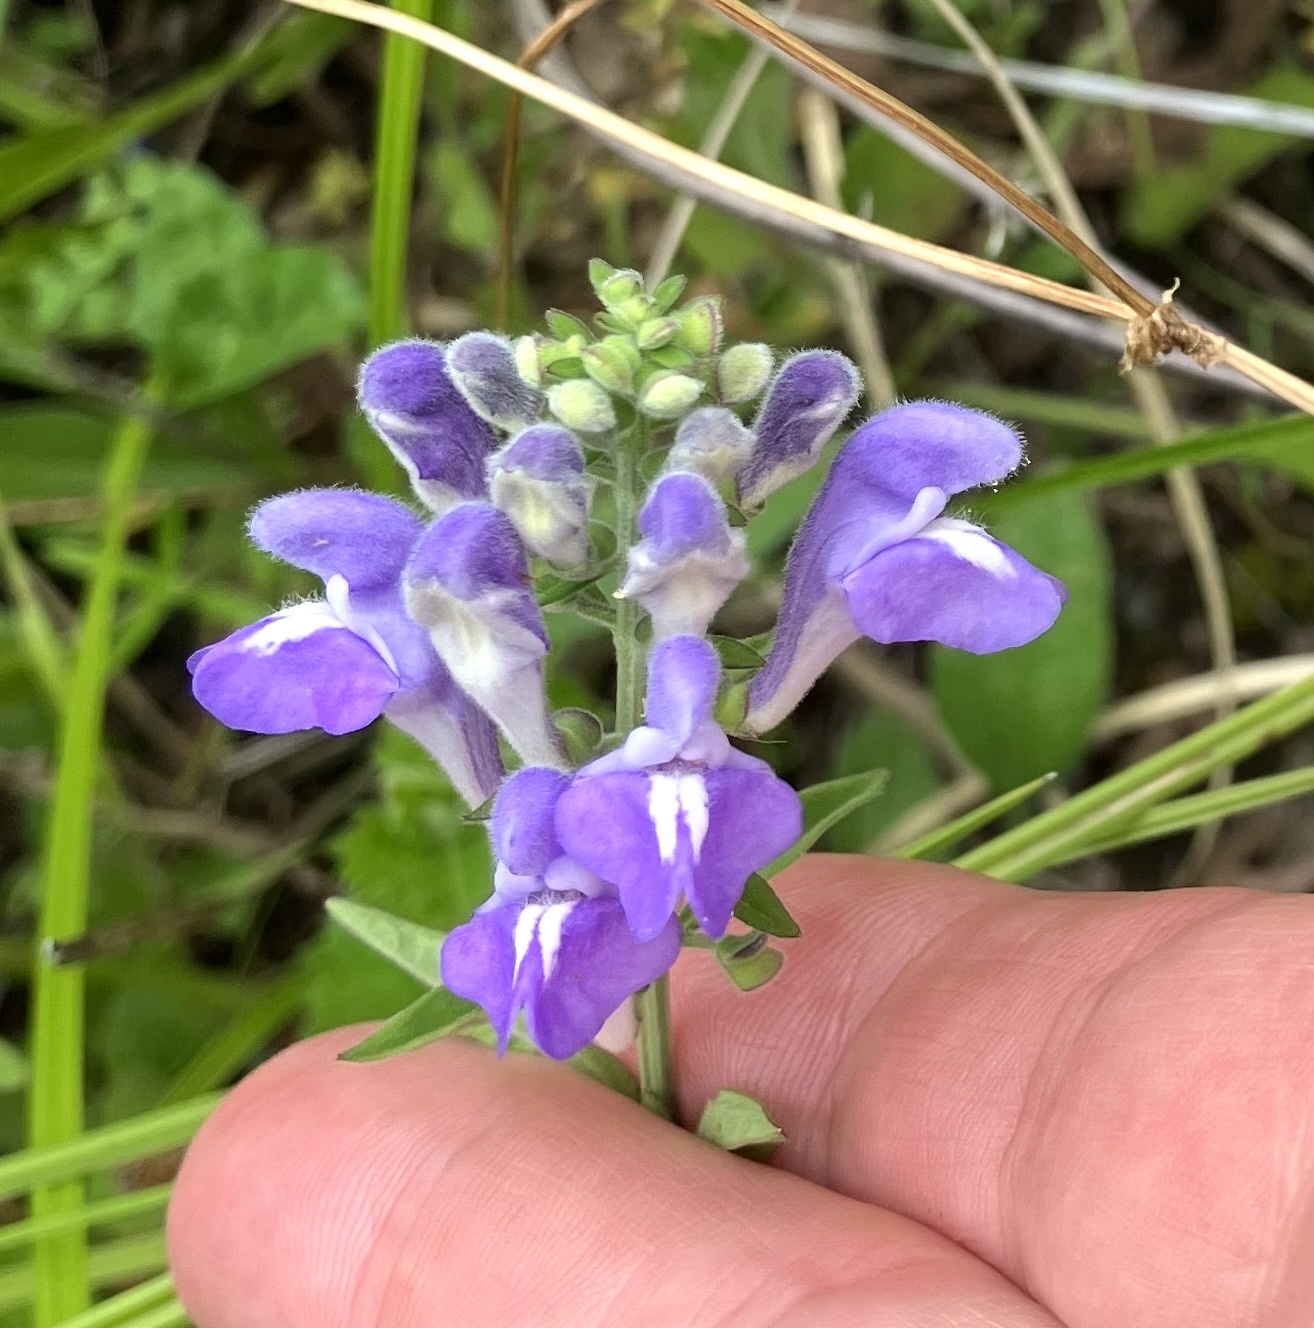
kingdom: Plantae
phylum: Tracheophyta
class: Magnoliopsida
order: Lamiales
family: Lamiaceae
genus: Scutellaria
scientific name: Scutellaria integrifolia
